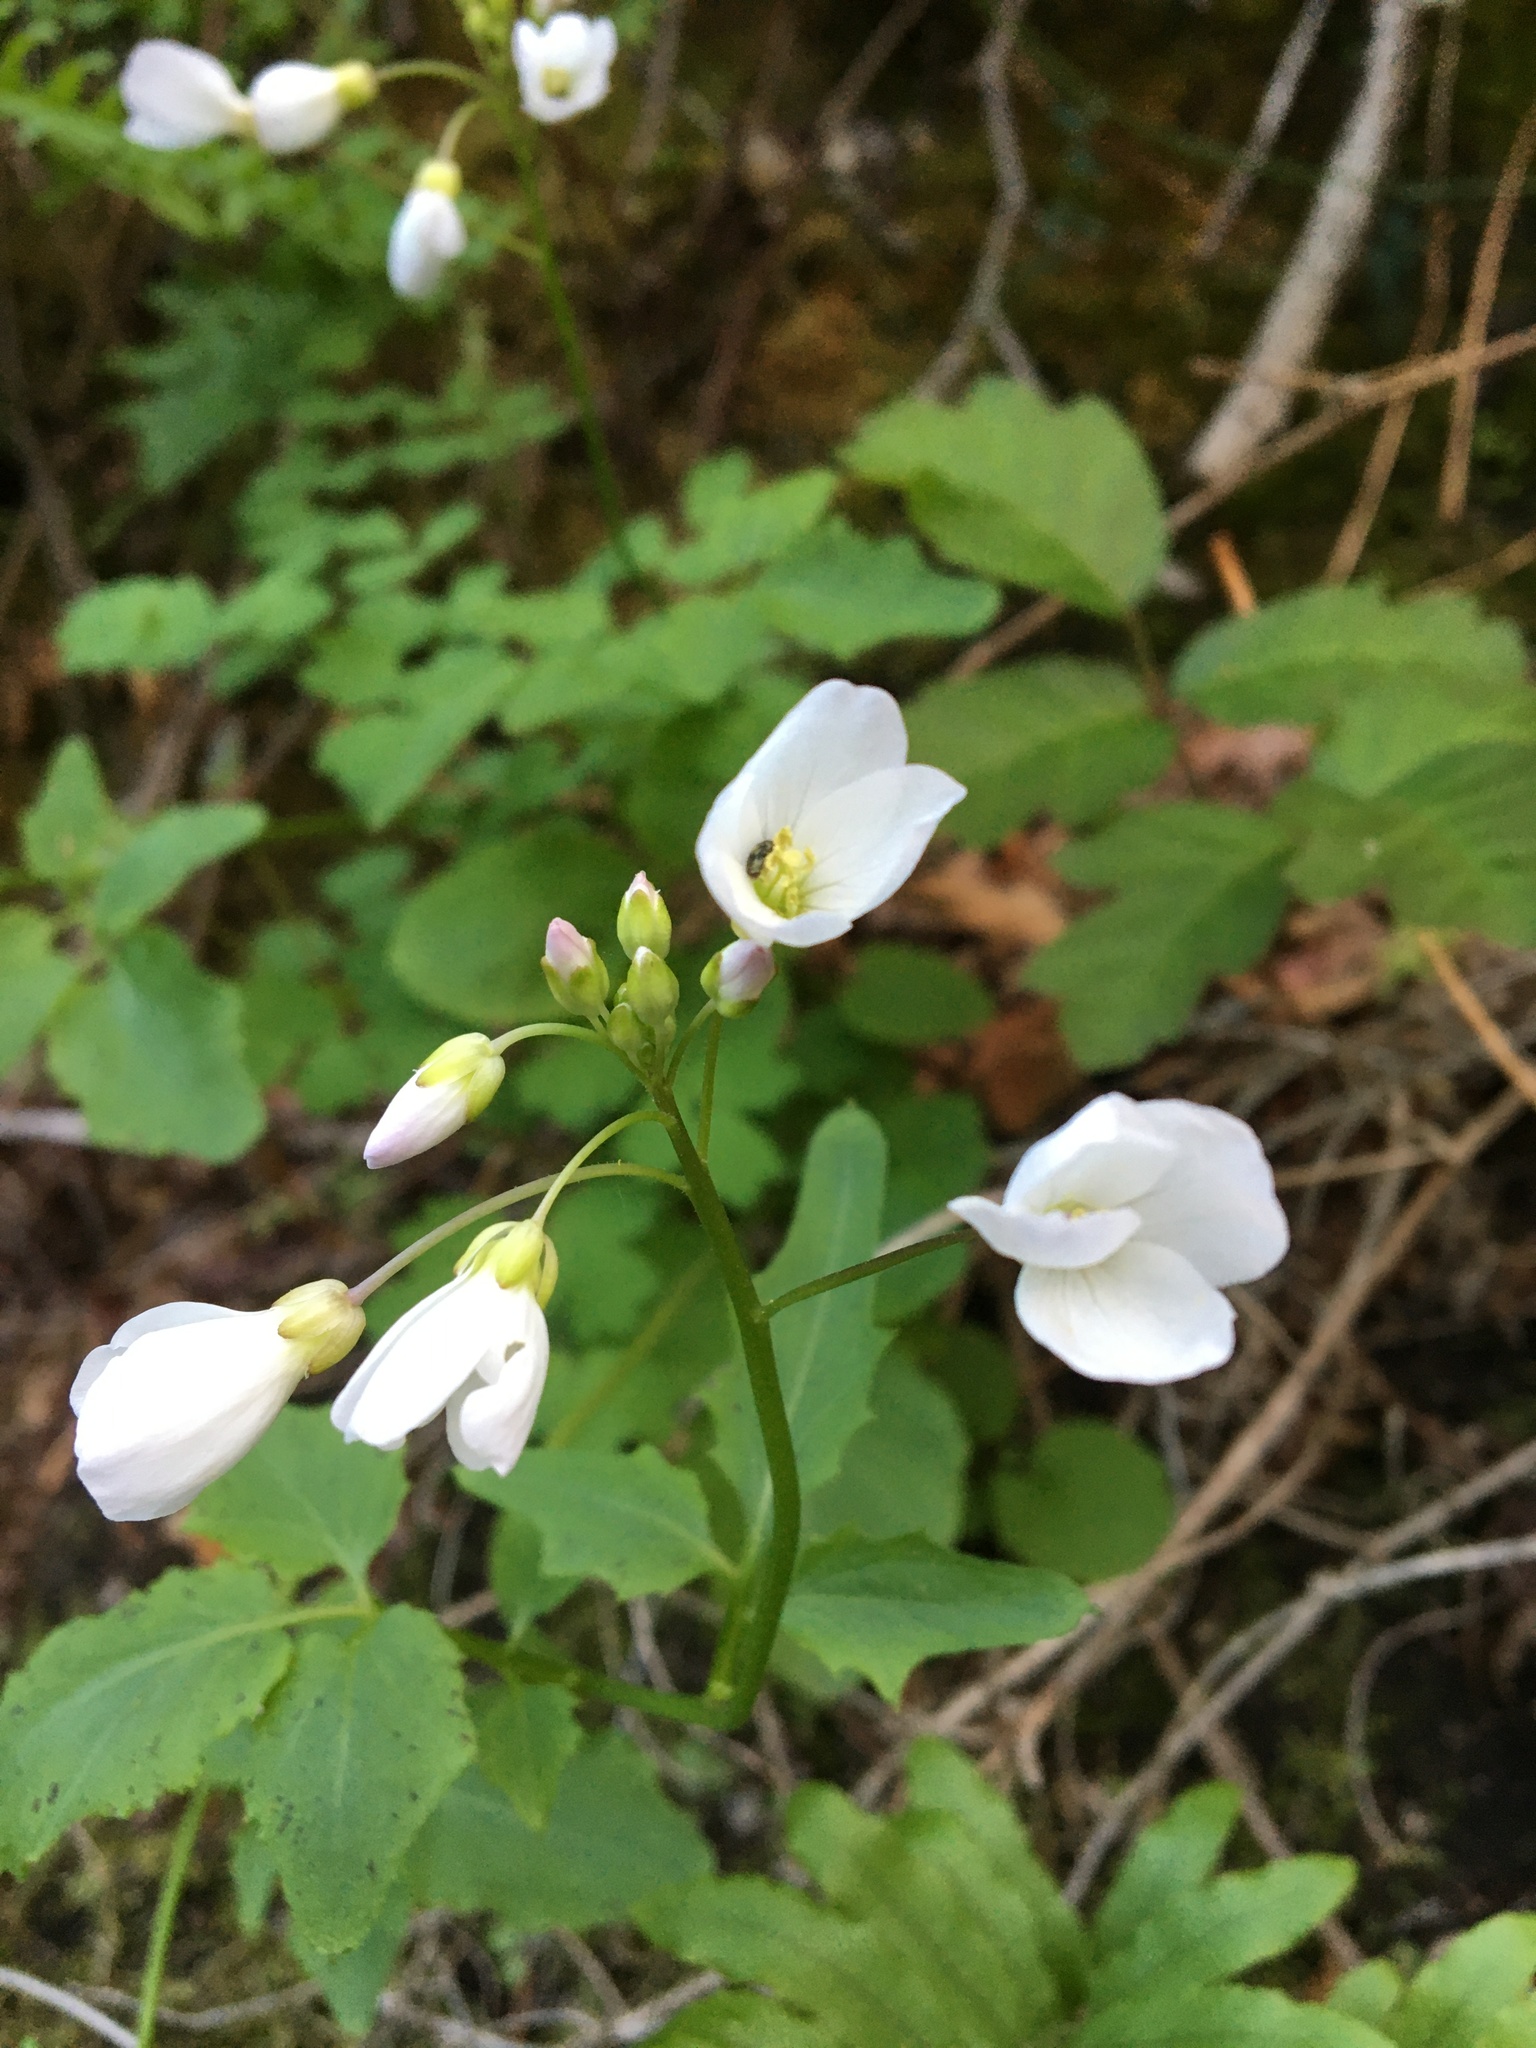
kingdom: Plantae
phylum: Tracheophyta
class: Magnoliopsida
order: Brassicales
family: Brassicaceae
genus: Cardamine
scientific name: Cardamine californica
